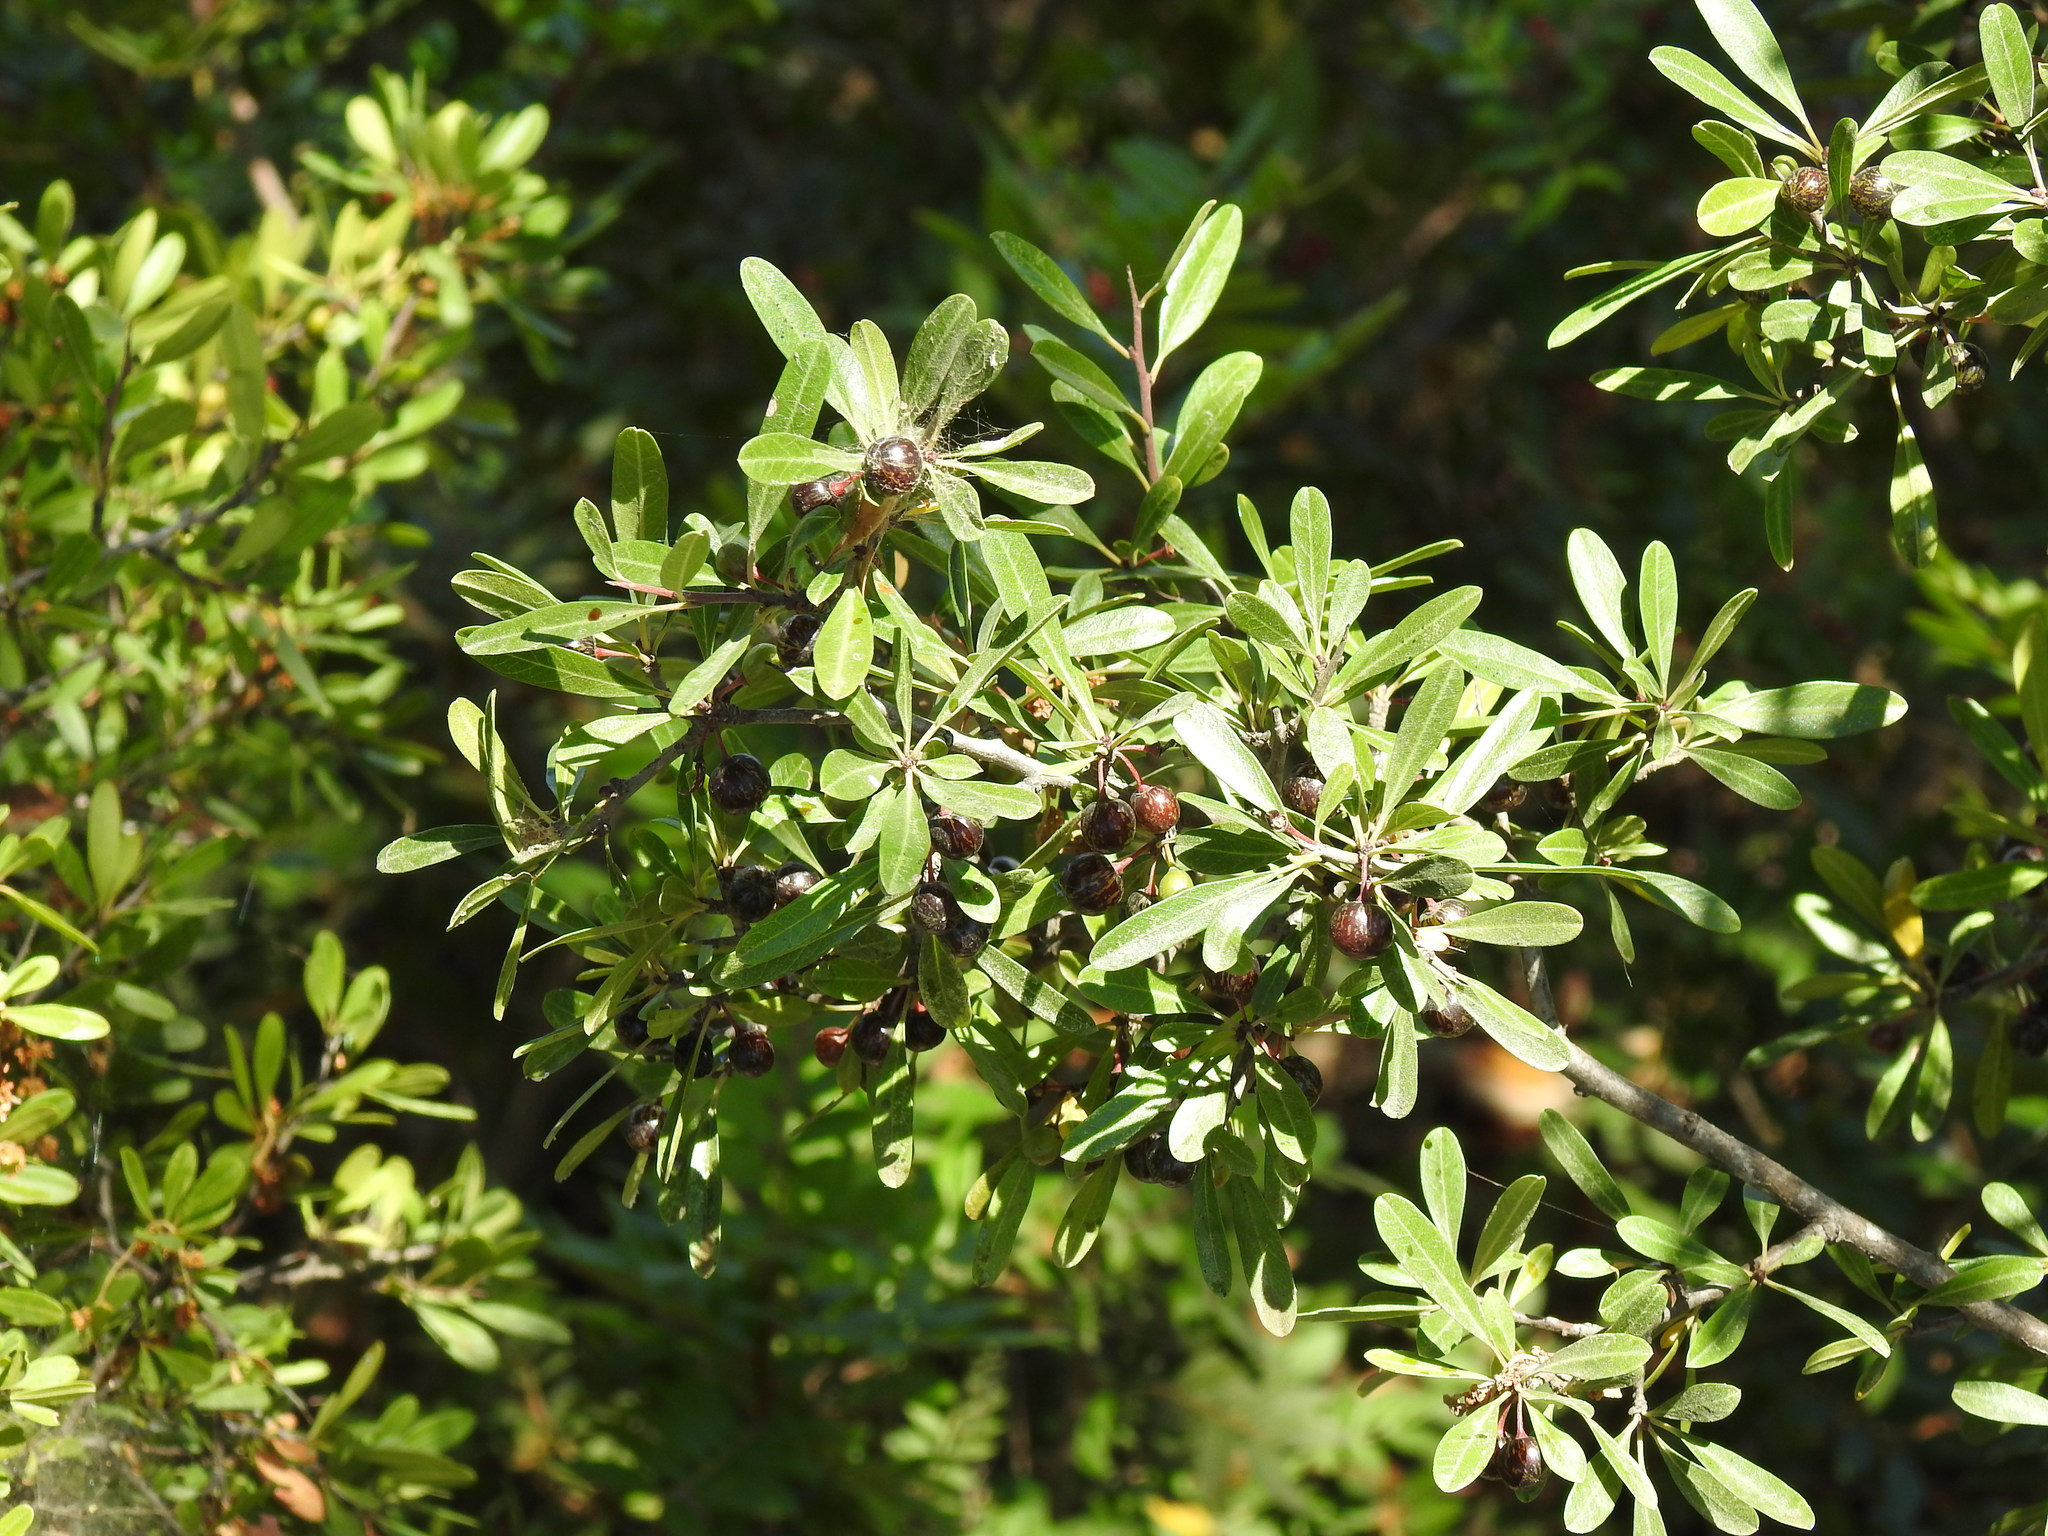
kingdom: Plantae
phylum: Tracheophyta
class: Magnoliopsida
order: Rosales
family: Rhamnaceae
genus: Rhamnus
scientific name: Rhamnus oleoides
